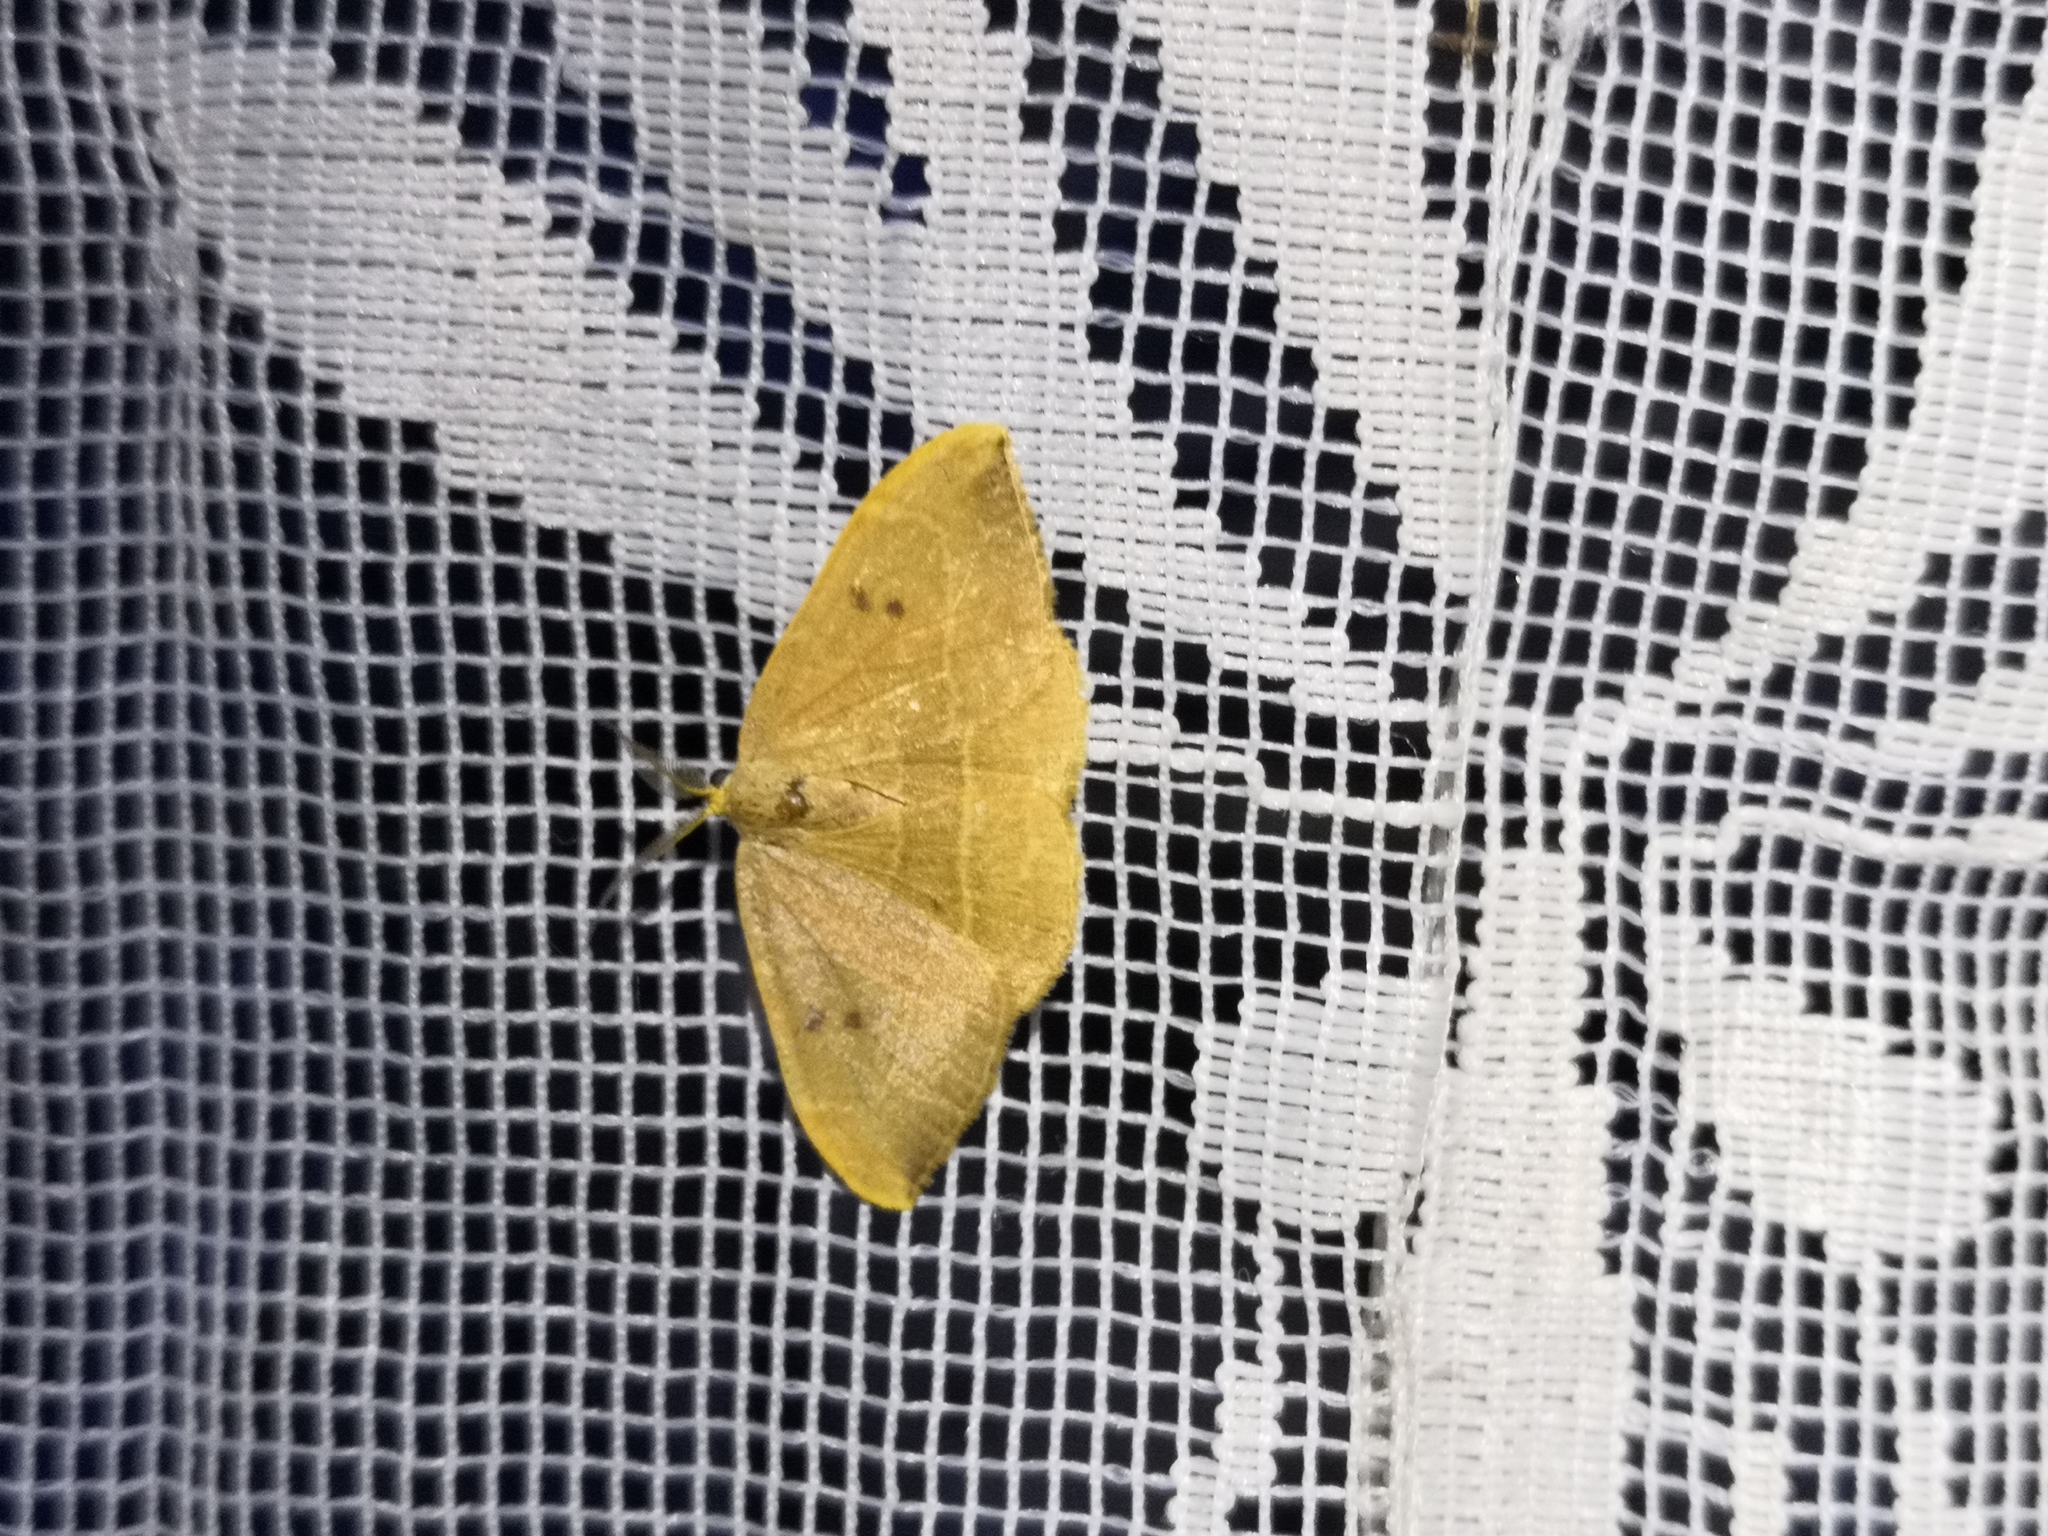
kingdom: Animalia
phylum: Arthropoda
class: Insecta
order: Lepidoptera
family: Drepanidae
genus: Watsonalla
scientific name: Watsonalla binaria
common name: Oak hook-tip
